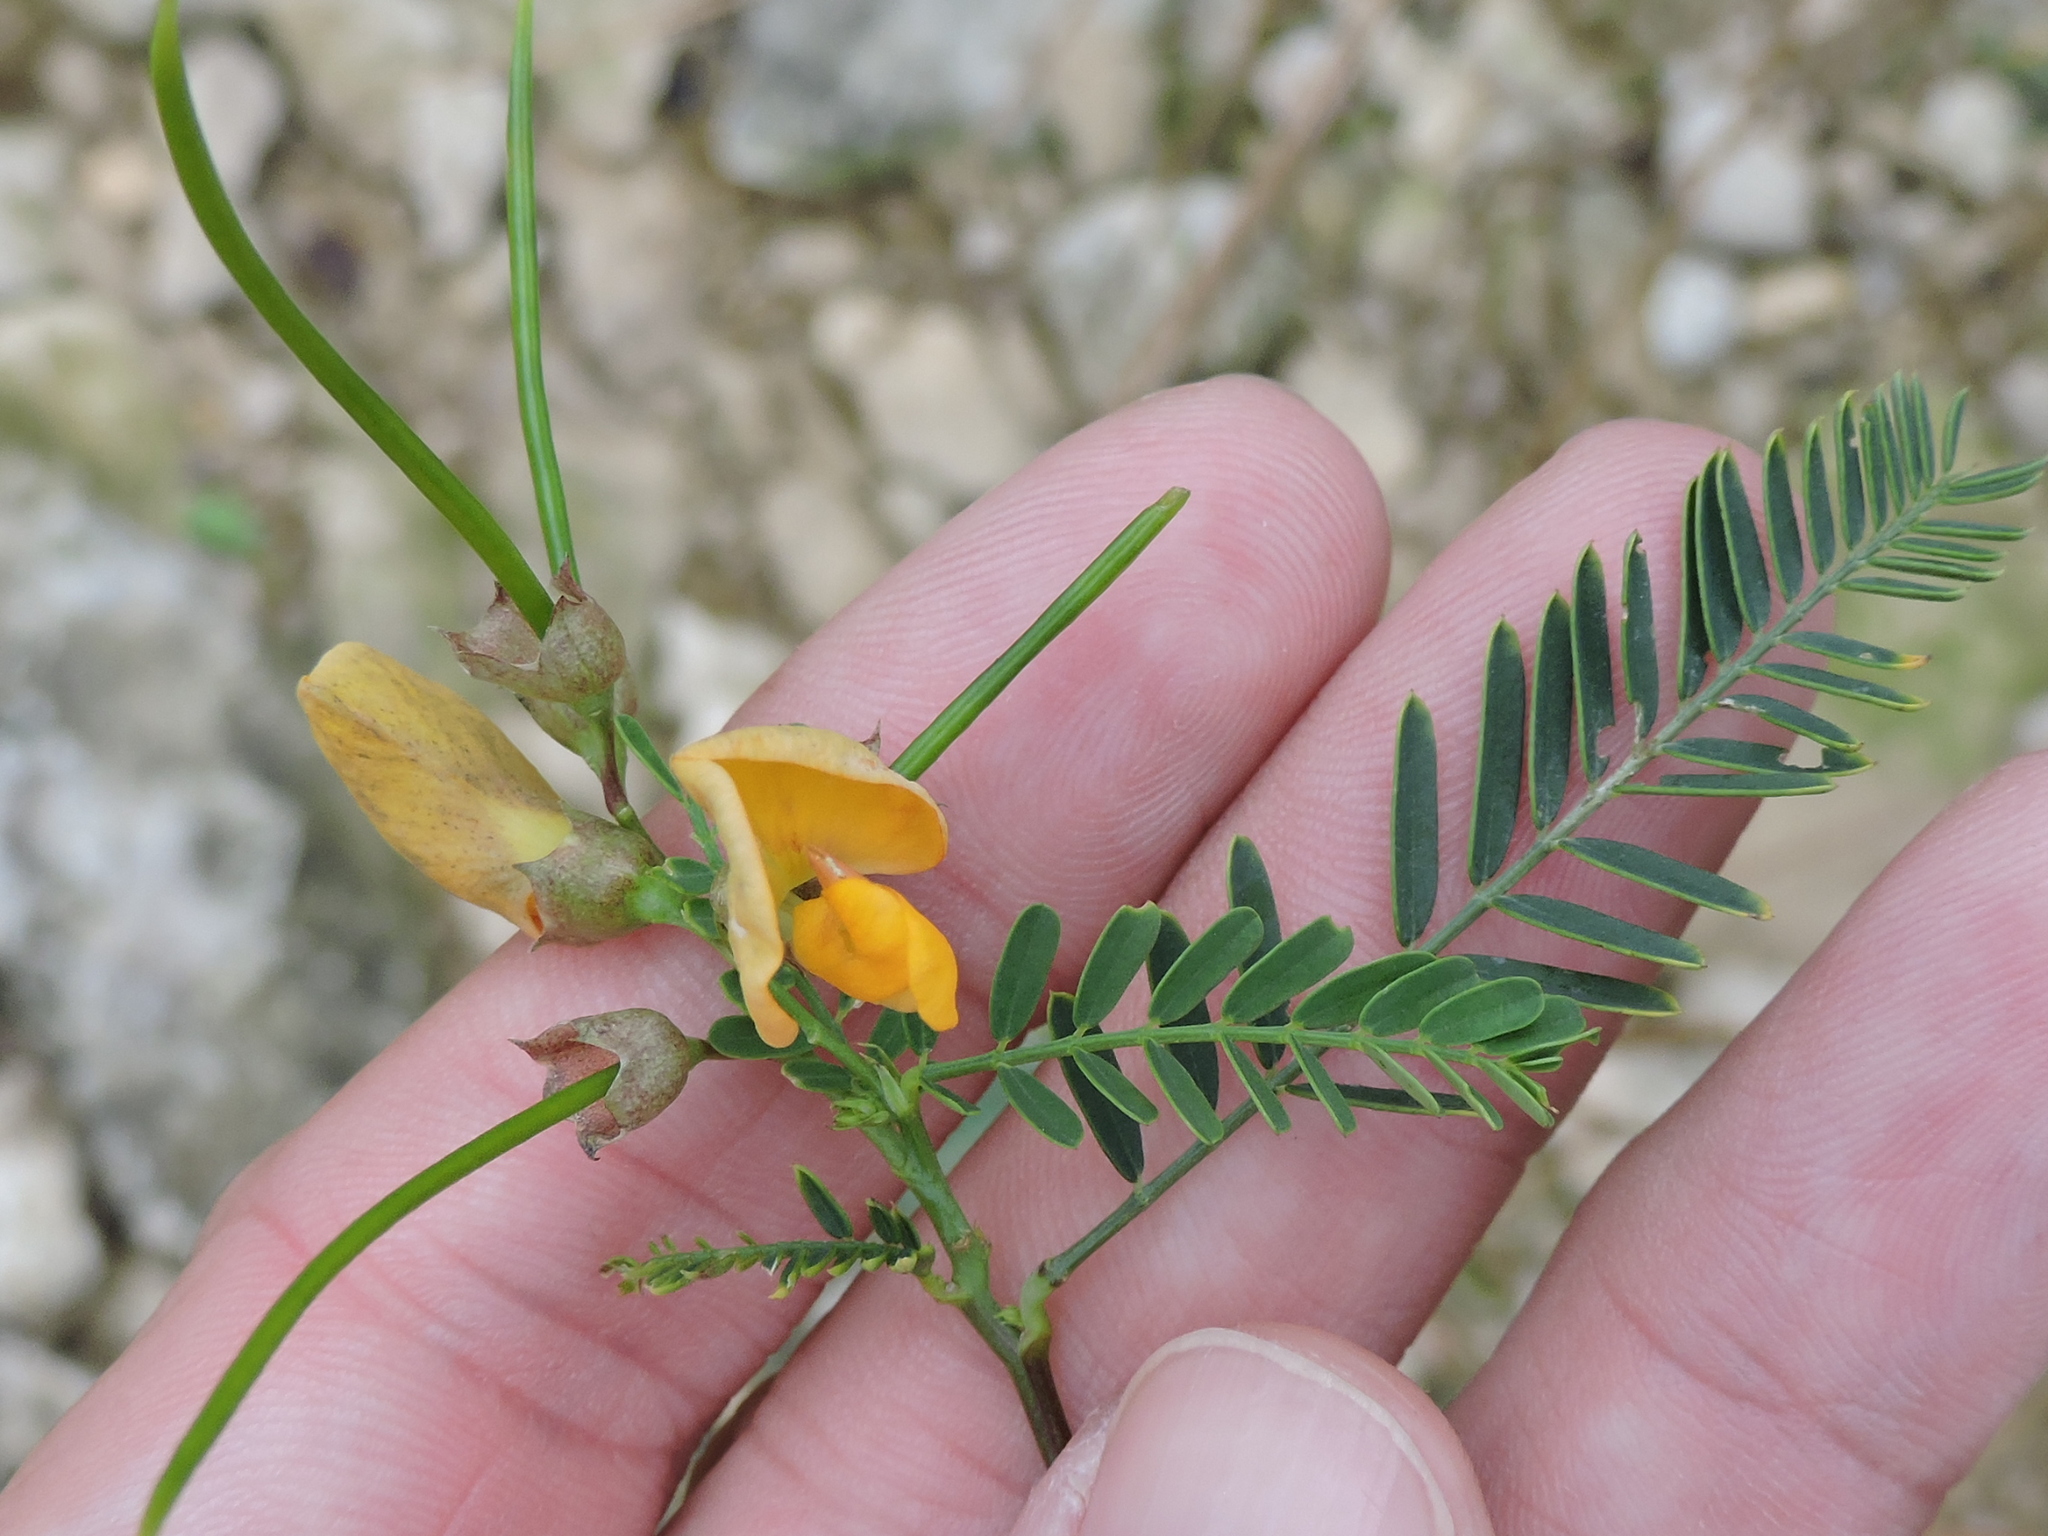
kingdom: Plantae
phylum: Tracheophyta
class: Magnoliopsida
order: Fabales
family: Fabaceae
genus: Sesbania
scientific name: Sesbania herbacea
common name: Bigpod sesbania
